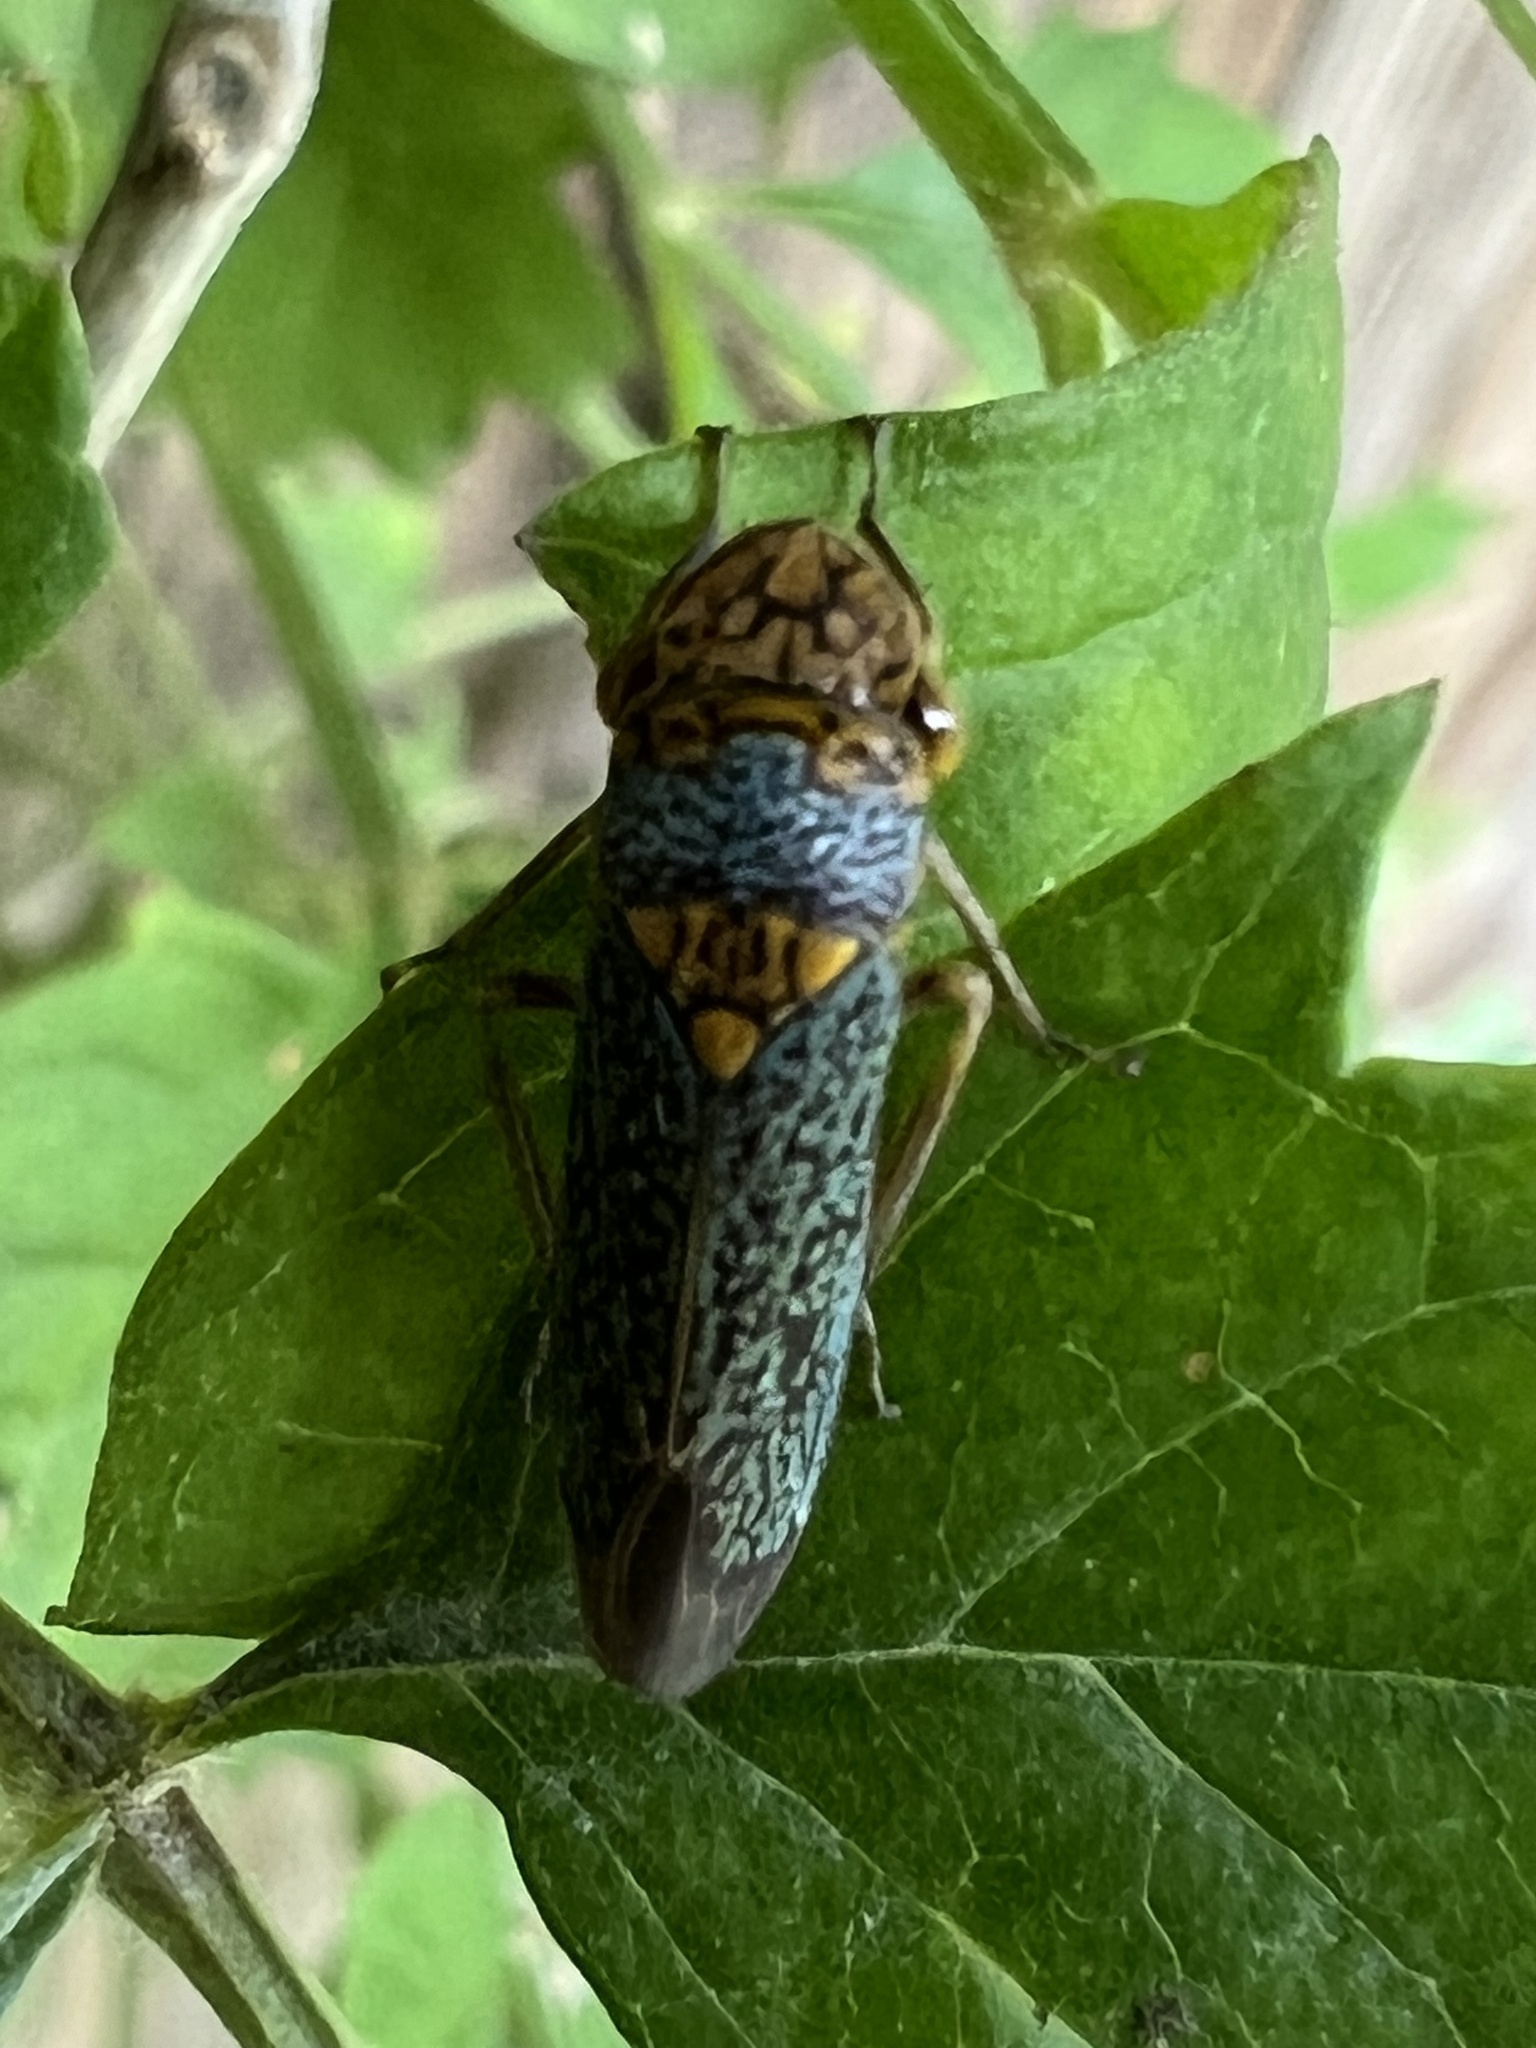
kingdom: Animalia
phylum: Arthropoda
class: Insecta
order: Hemiptera
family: Cicadellidae
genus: Oncometopia
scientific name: Oncometopia orbona
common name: Broad-headed sharpshooter
